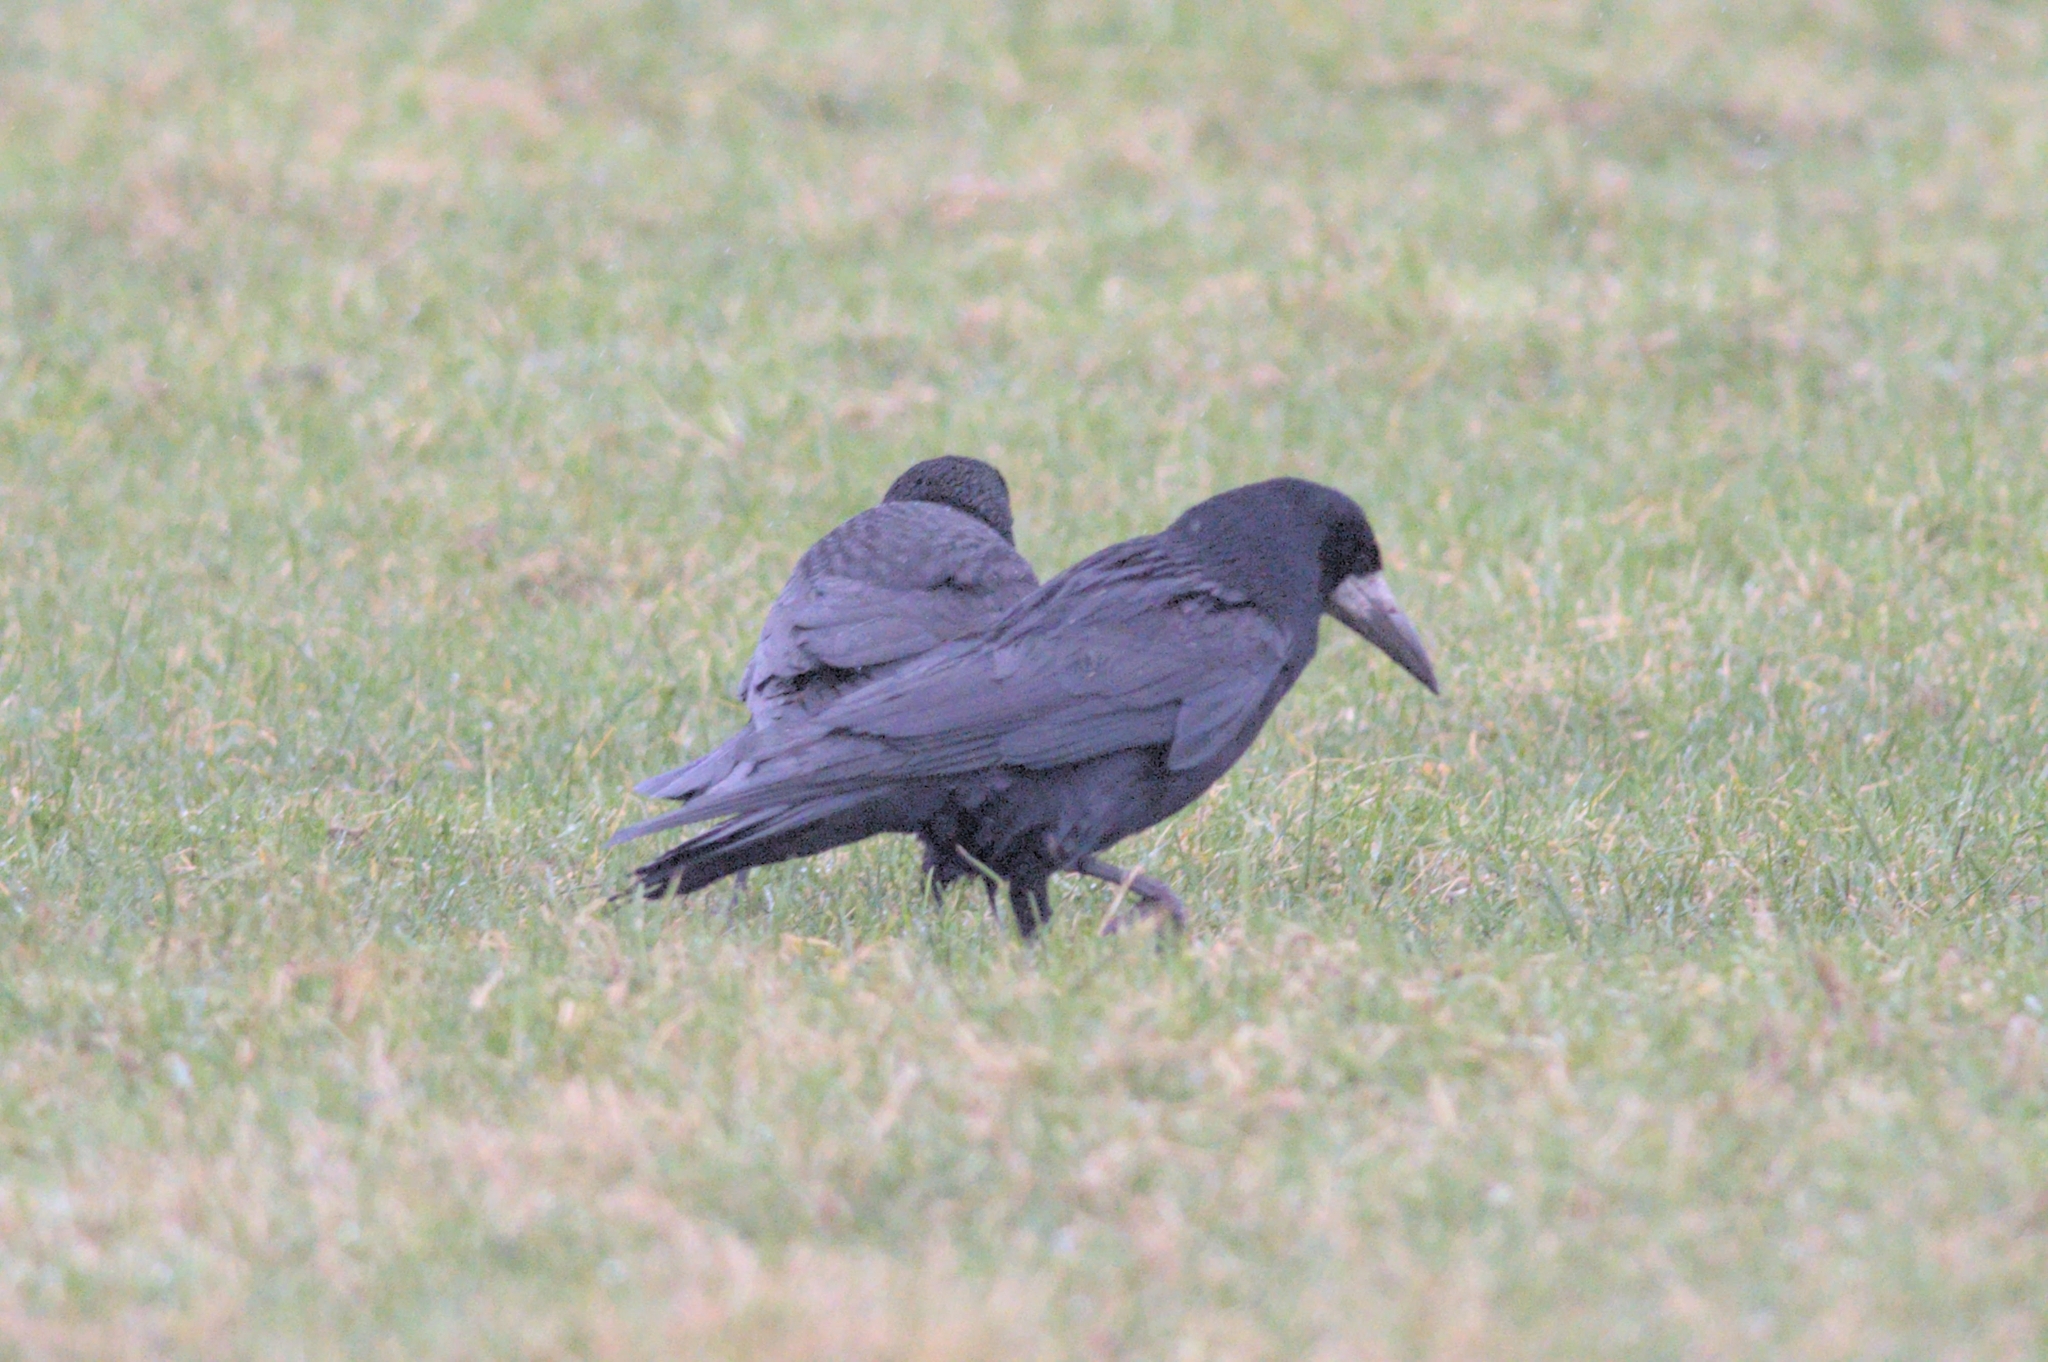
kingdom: Animalia
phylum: Chordata
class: Aves
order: Passeriformes
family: Corvidae
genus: Corvus
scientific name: Corvus frugilegus
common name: Rook
